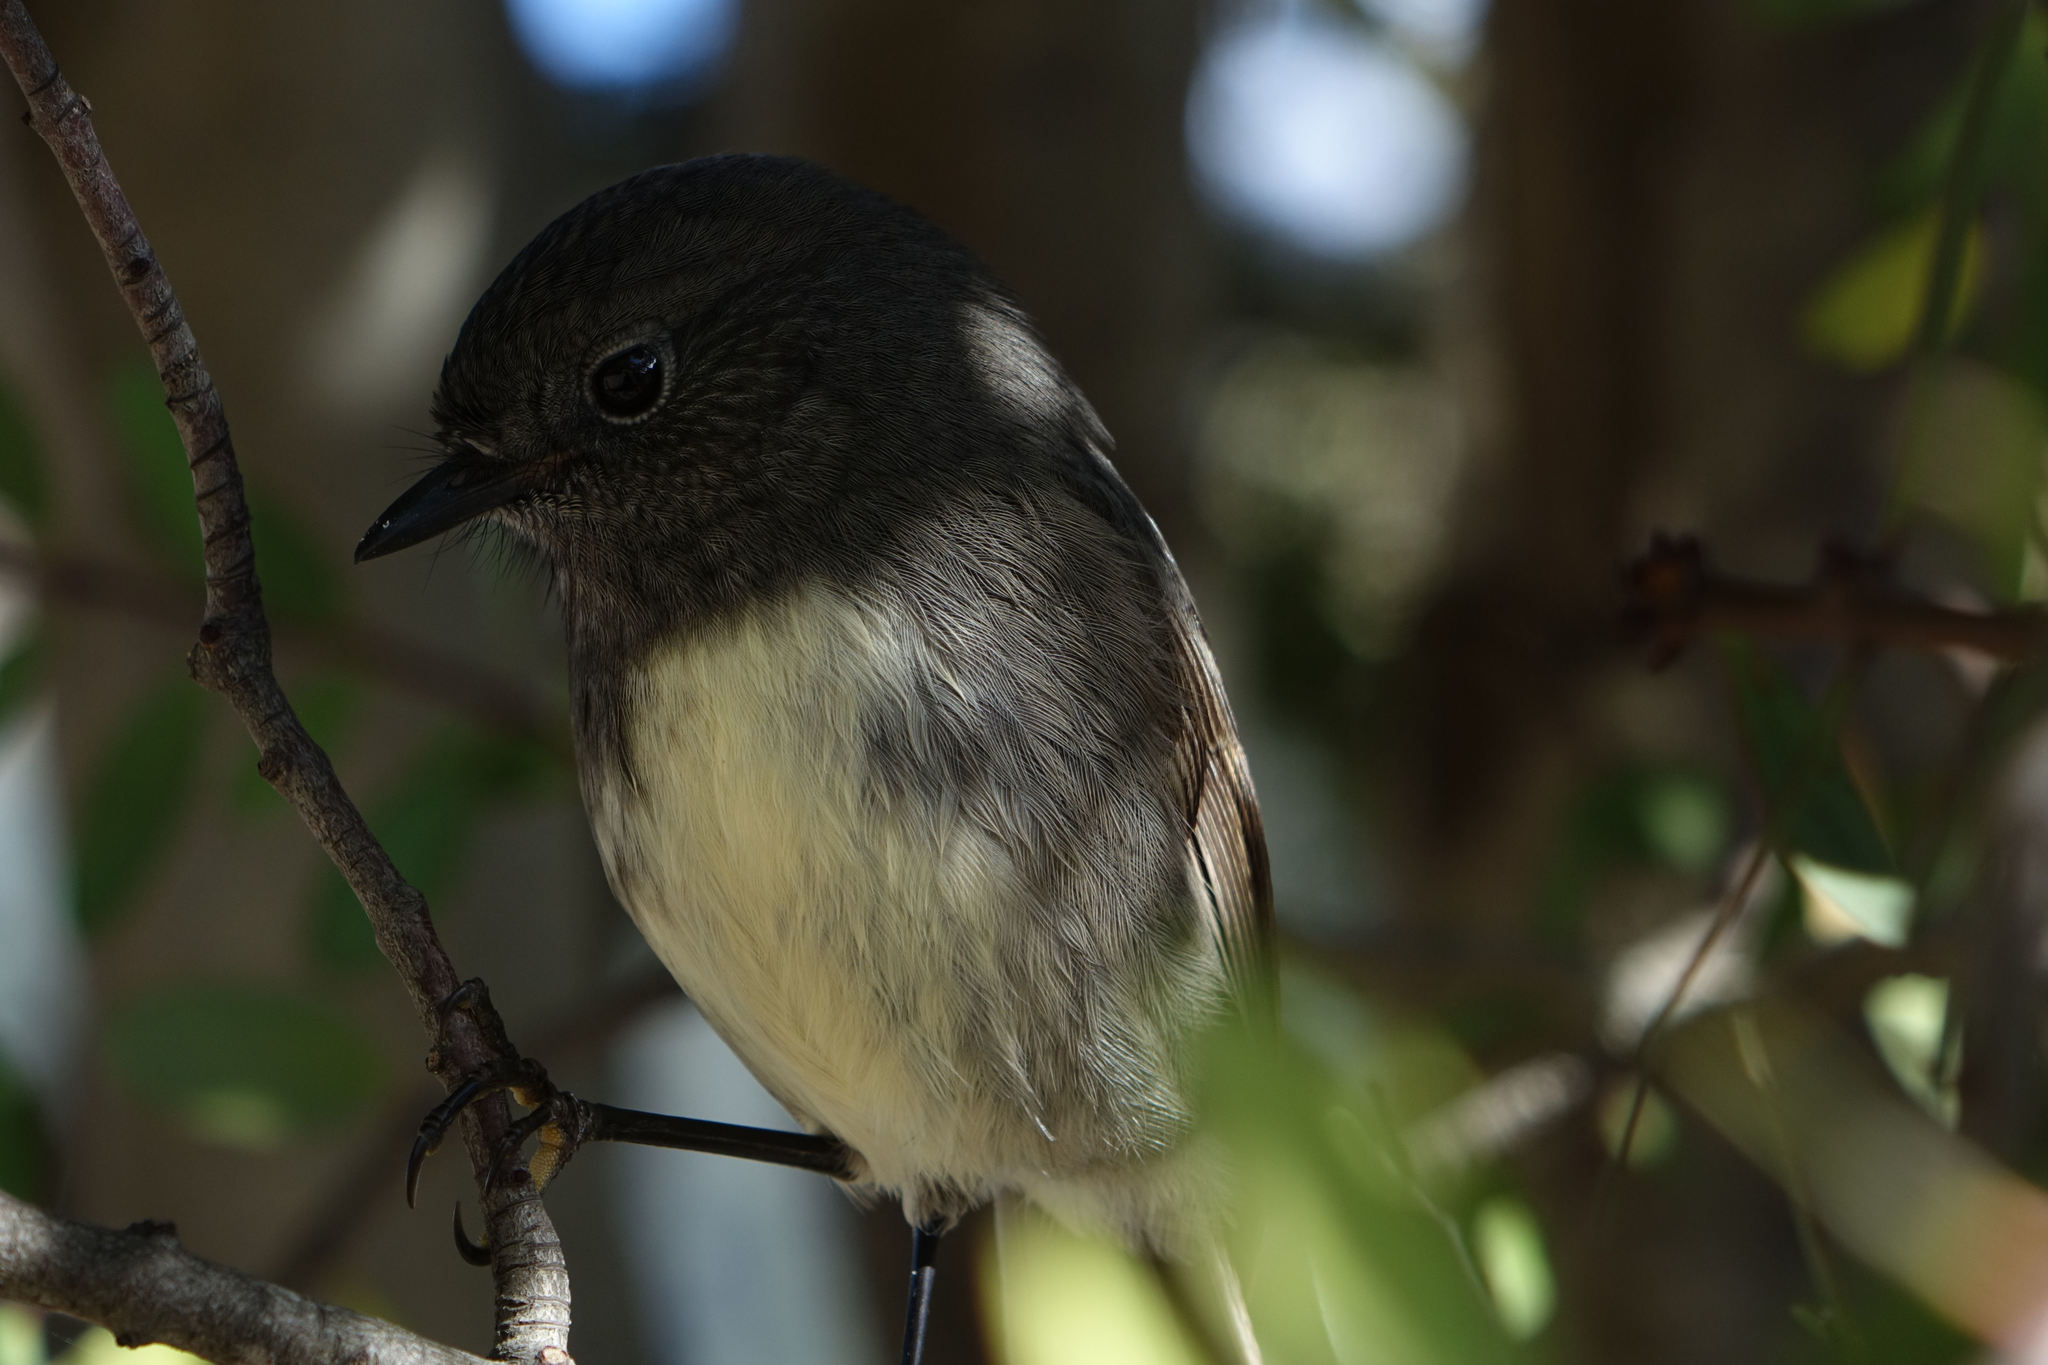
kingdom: Animalia
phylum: Chordata
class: Aves
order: Passeriformes
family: Petroicidae
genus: Petroica
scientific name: Petroica australis
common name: New zealand robin
